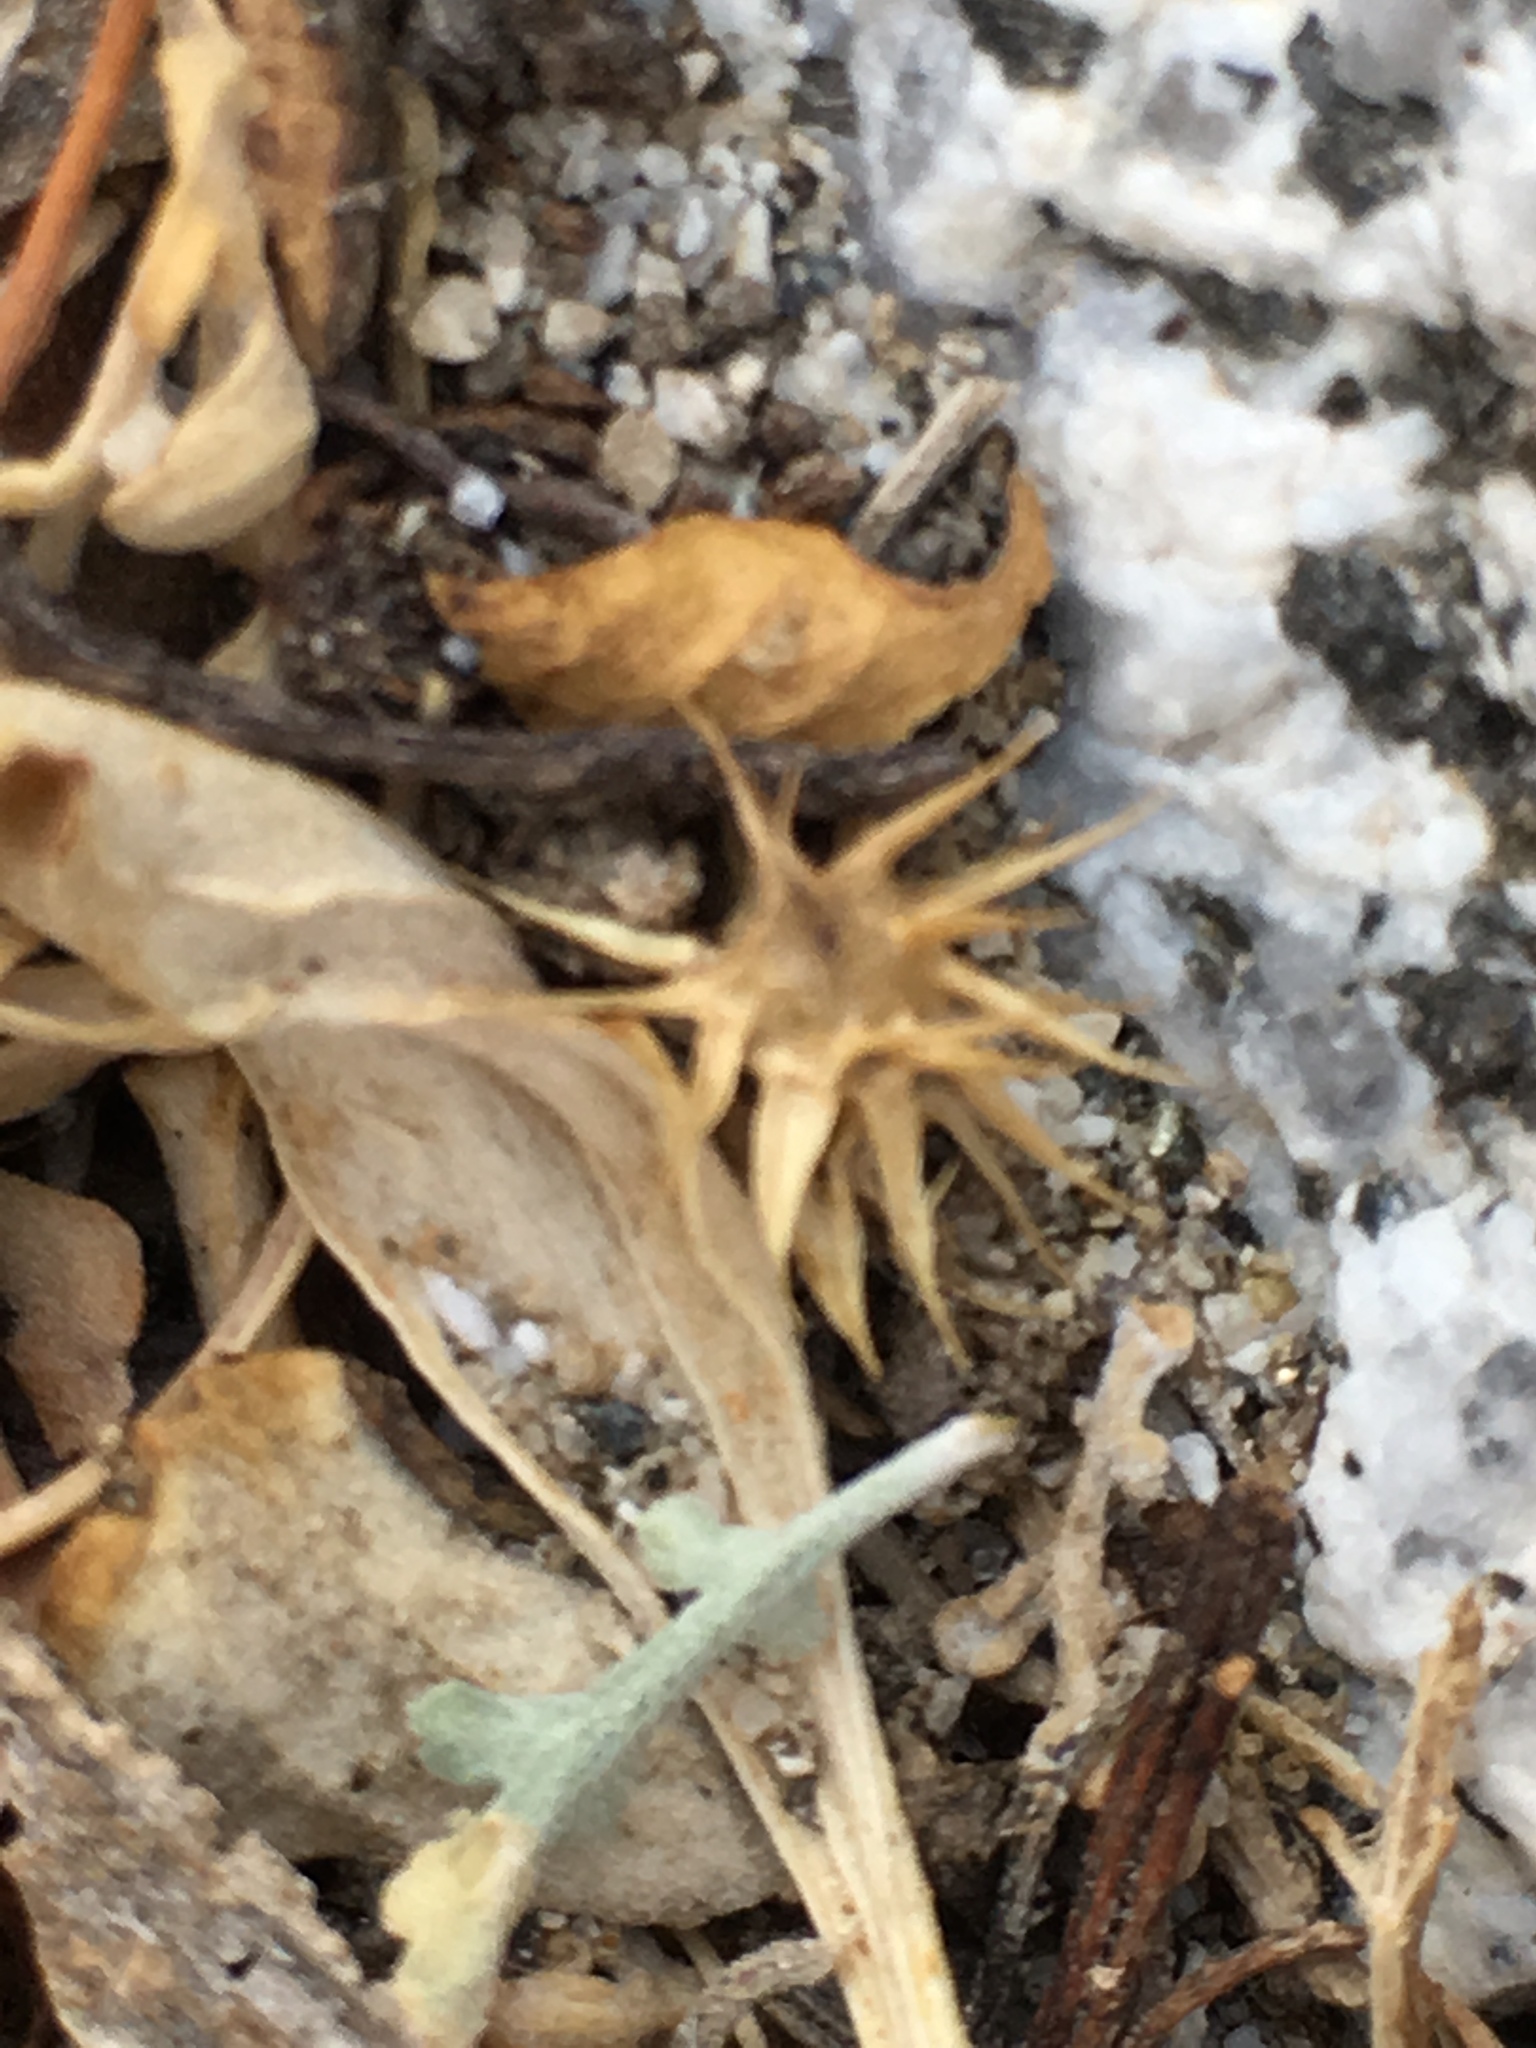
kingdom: Plantae
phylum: Tracheophyta
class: Magnoliopsida
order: Asterales
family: Asteraceae
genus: Ambrosia
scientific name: Ambrosia dumosa
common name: Bur-sage
